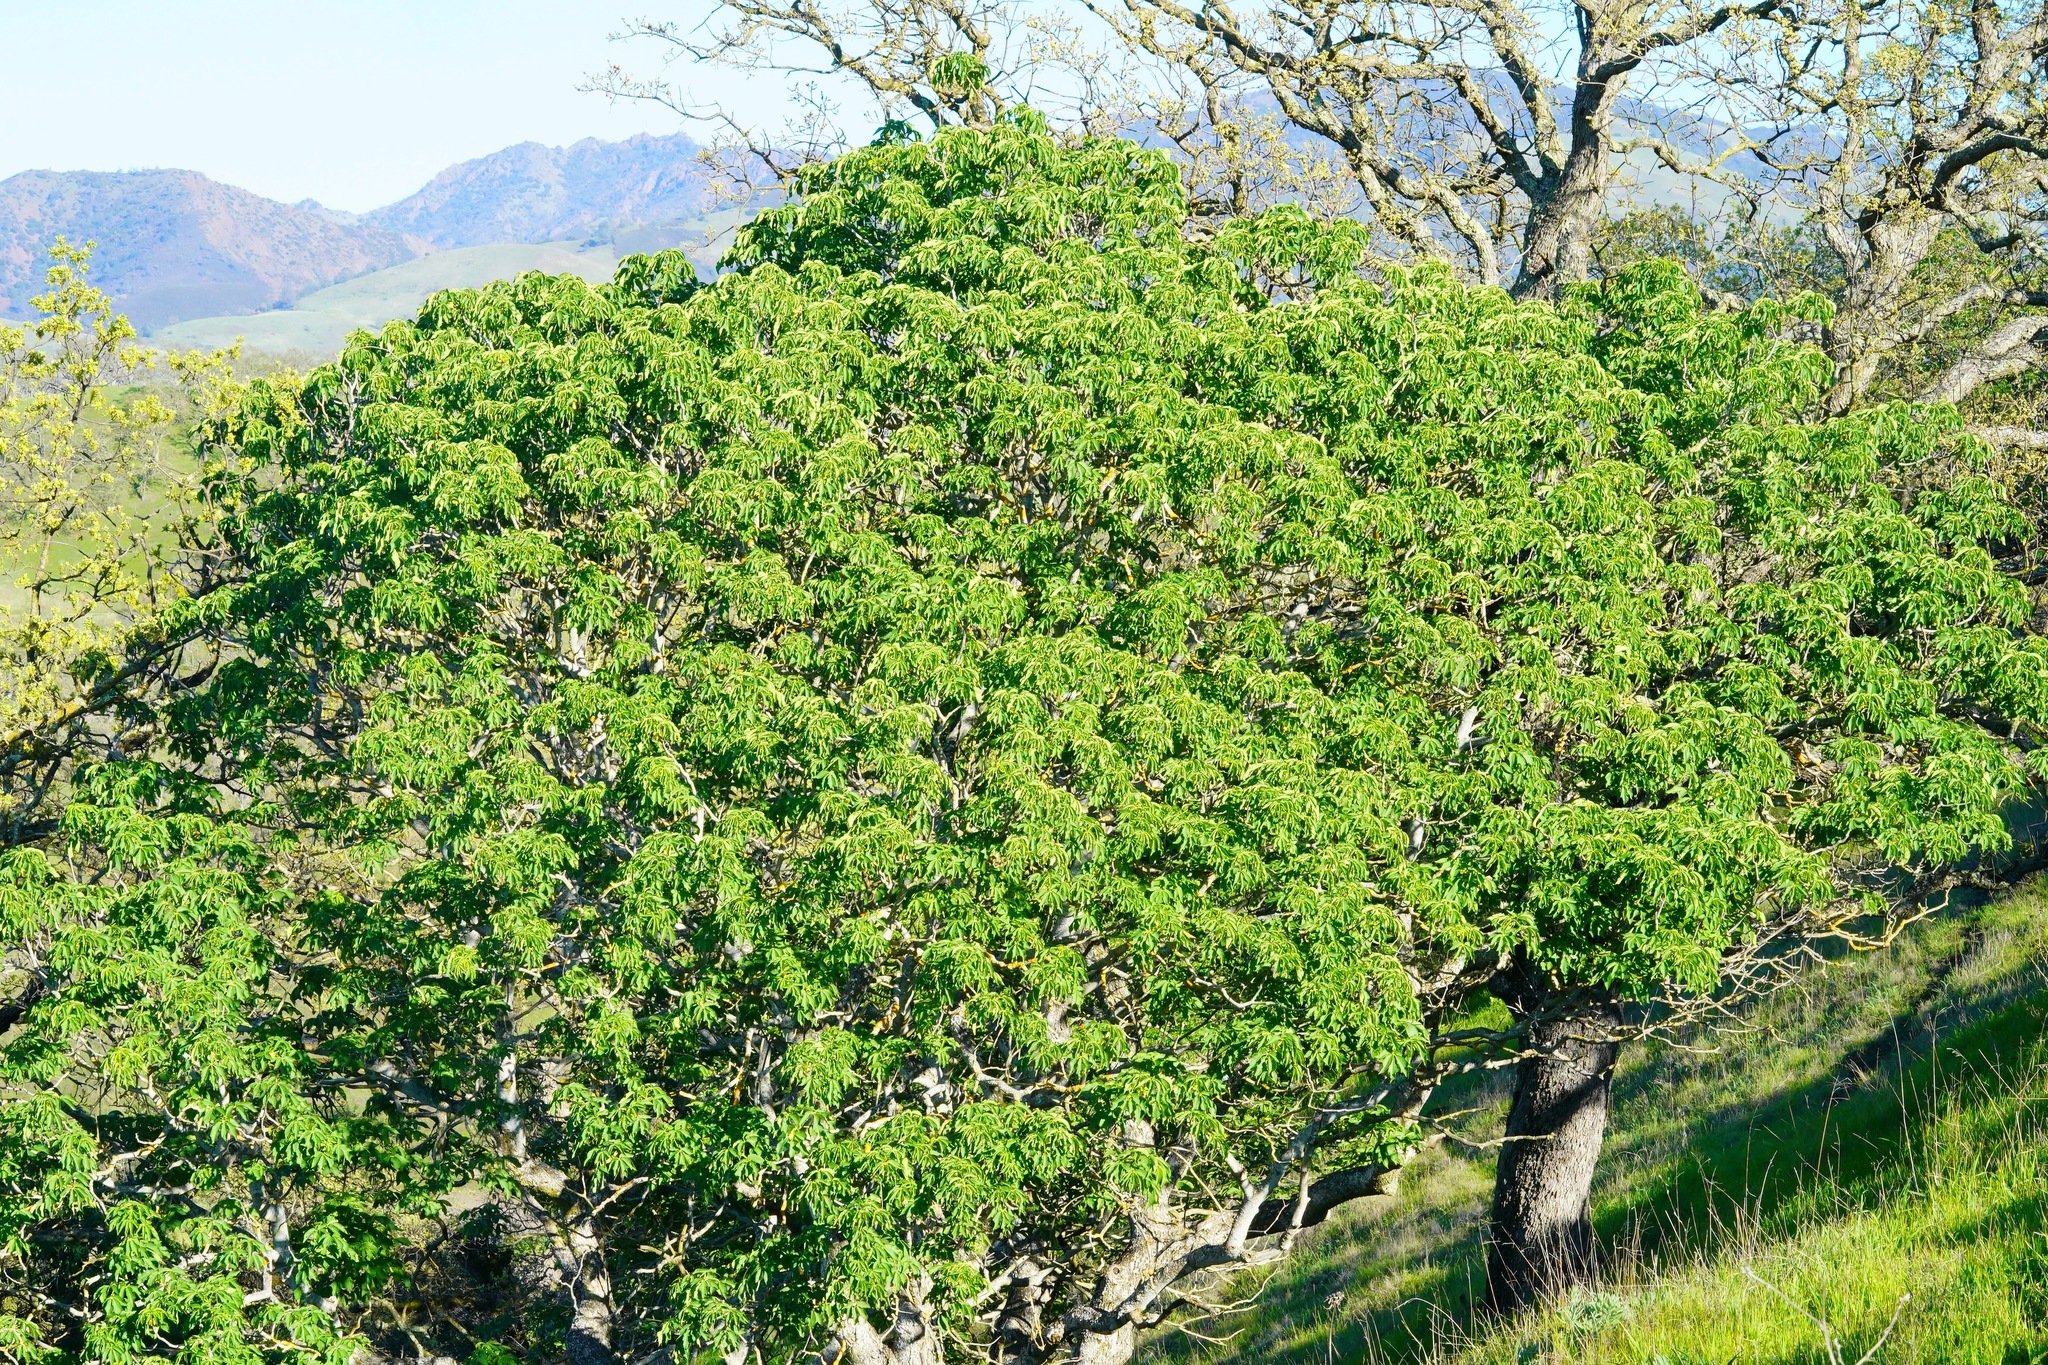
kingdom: Plantae
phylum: Tracheophyta
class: Magnoliopsida
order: Sapindales
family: Sapindaceae
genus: Aesculus
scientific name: Aesculus californica
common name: California buckeye
